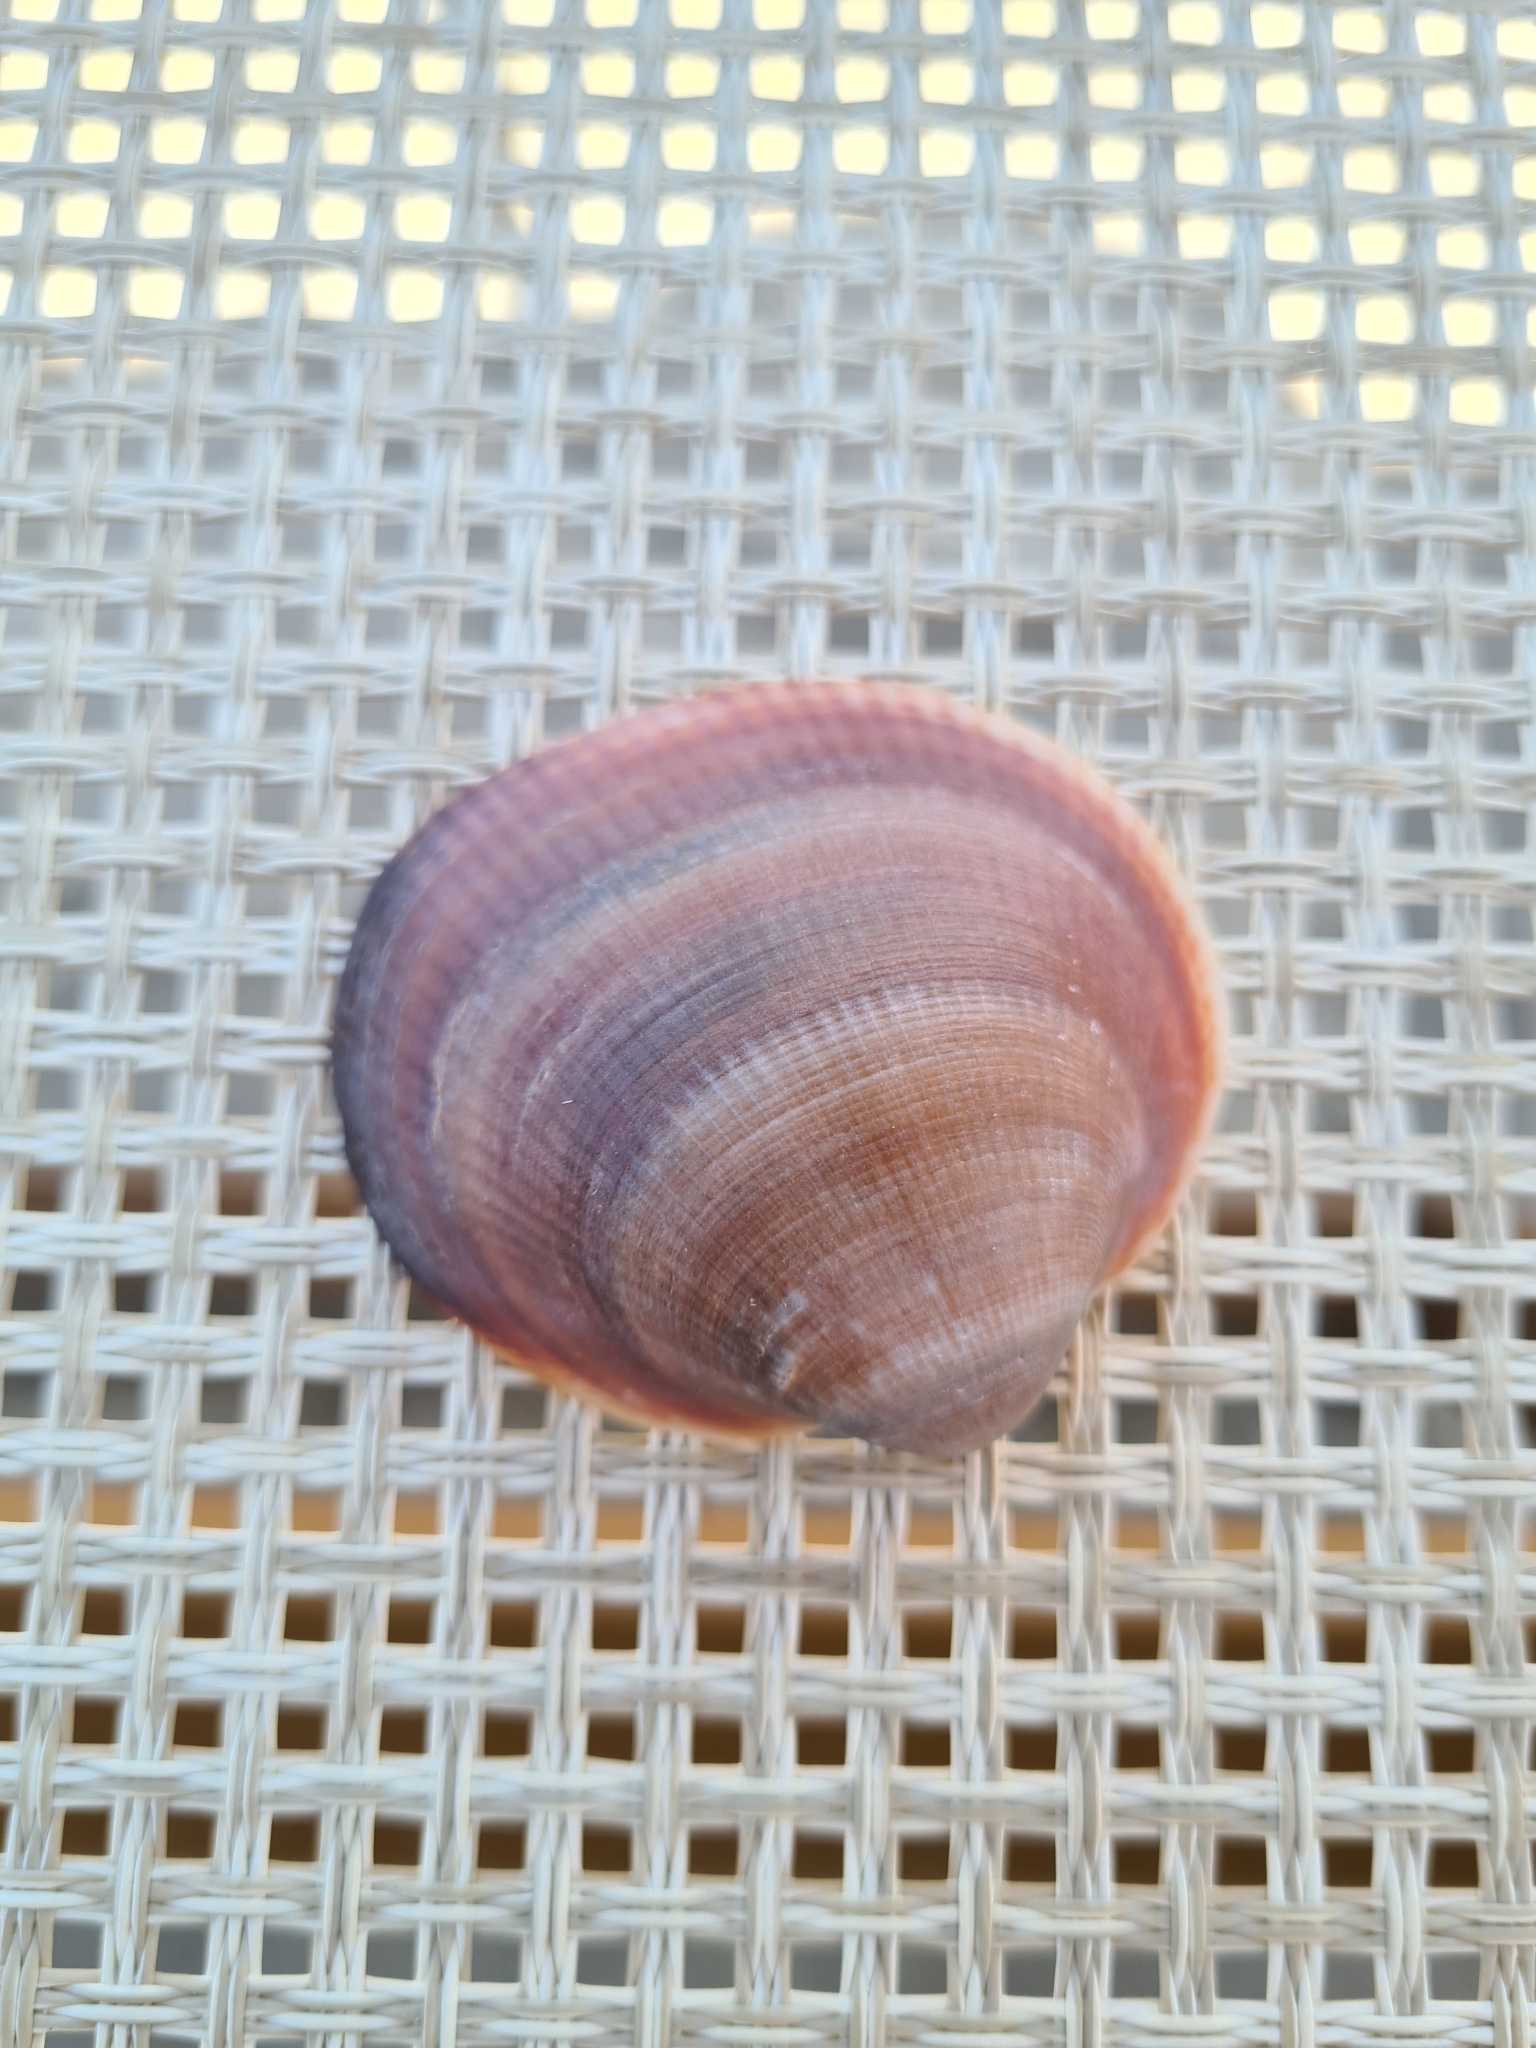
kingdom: Animalia
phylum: Mollusca
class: Bivalvia
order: Arcida
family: Glycymerididae
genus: Glycymeris
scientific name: Glycymeris nummaria
